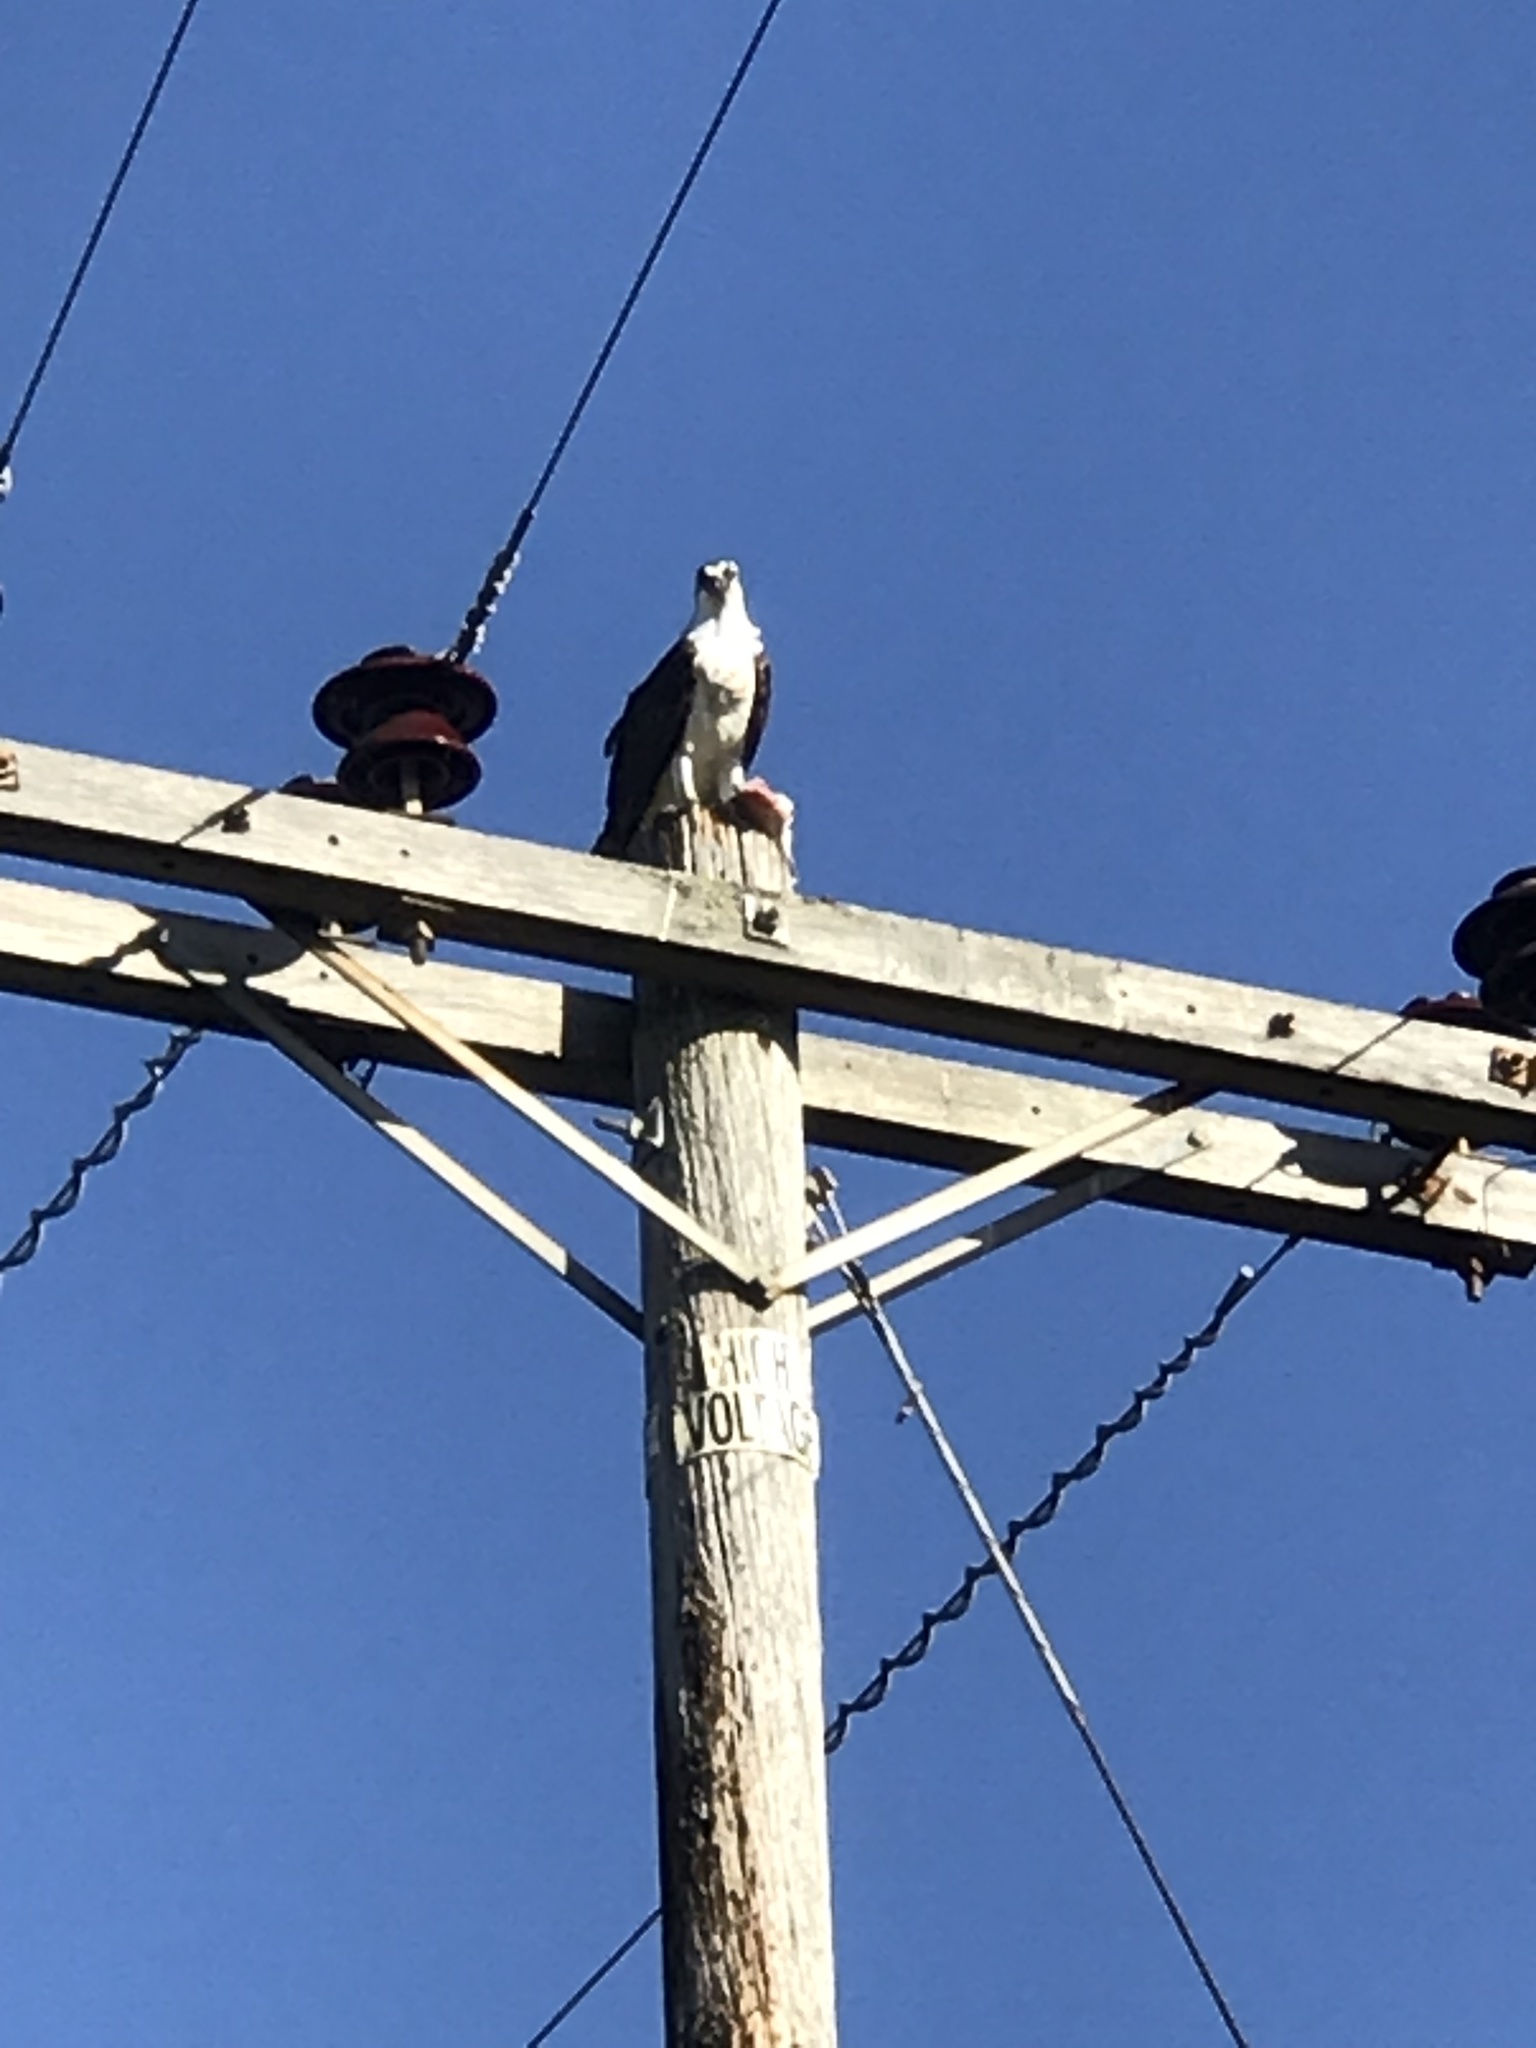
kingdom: Animalia
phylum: Chordata
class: Aves
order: Accipitriformes
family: Pandionidae
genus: Pandion
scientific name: Pandion haliaetus
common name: Osprey
